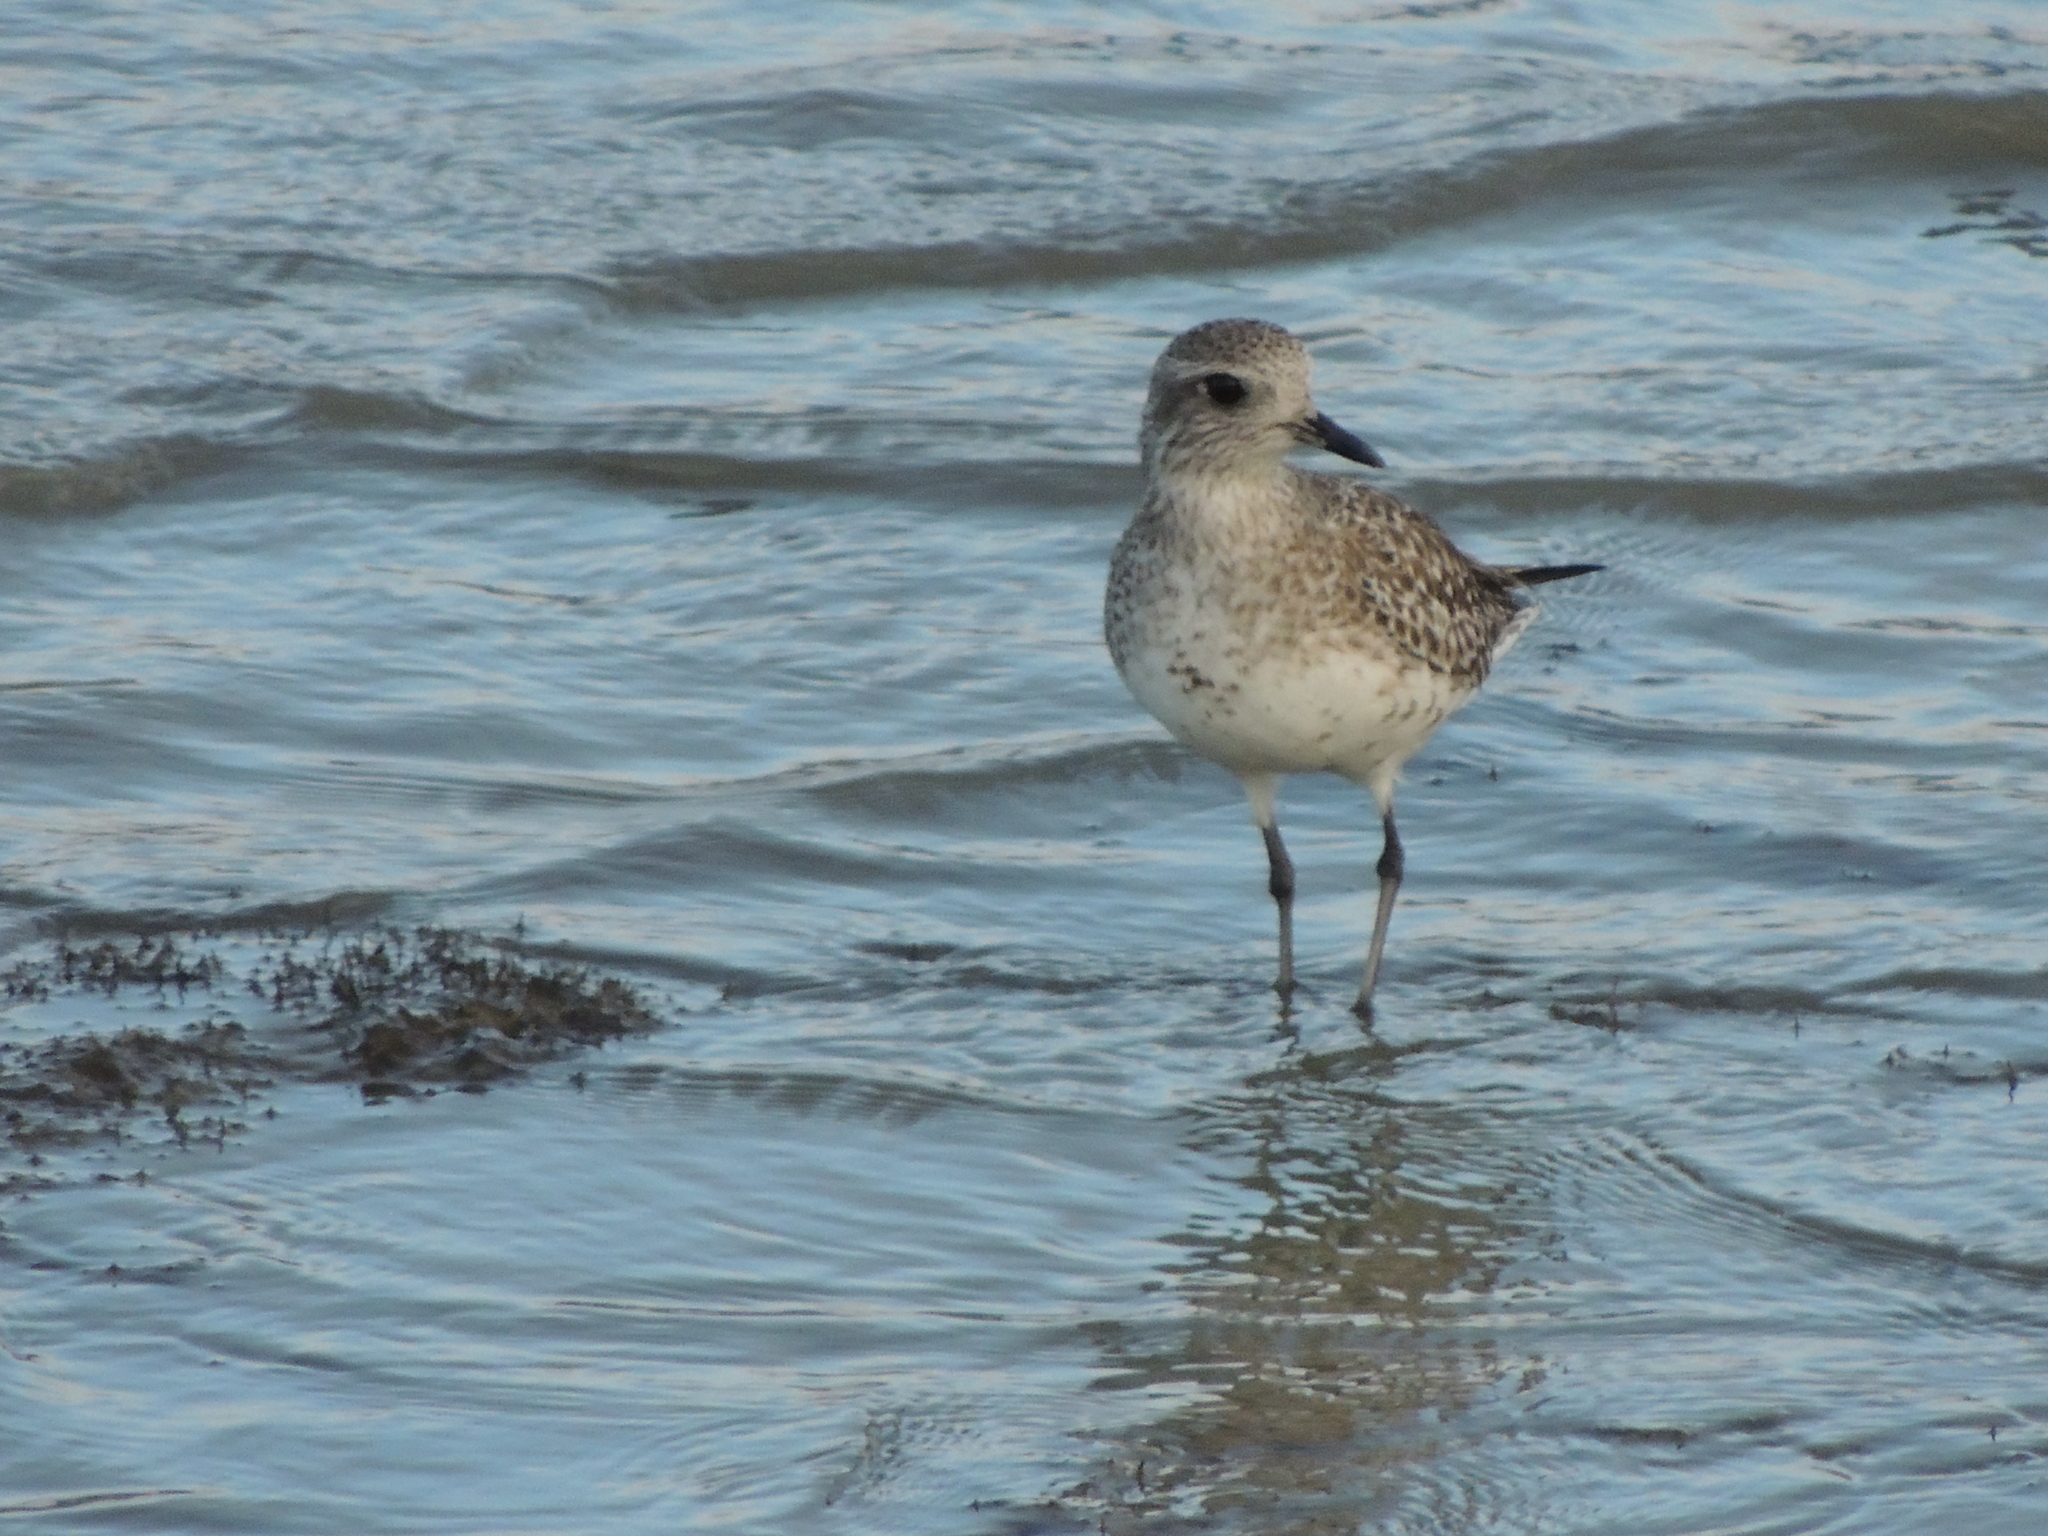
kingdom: Animalia
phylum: Chordata
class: Aves
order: Charadriiformes
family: Charadriidae
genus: Pluvialis
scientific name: Pluvialis squatarola
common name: Grey plover
